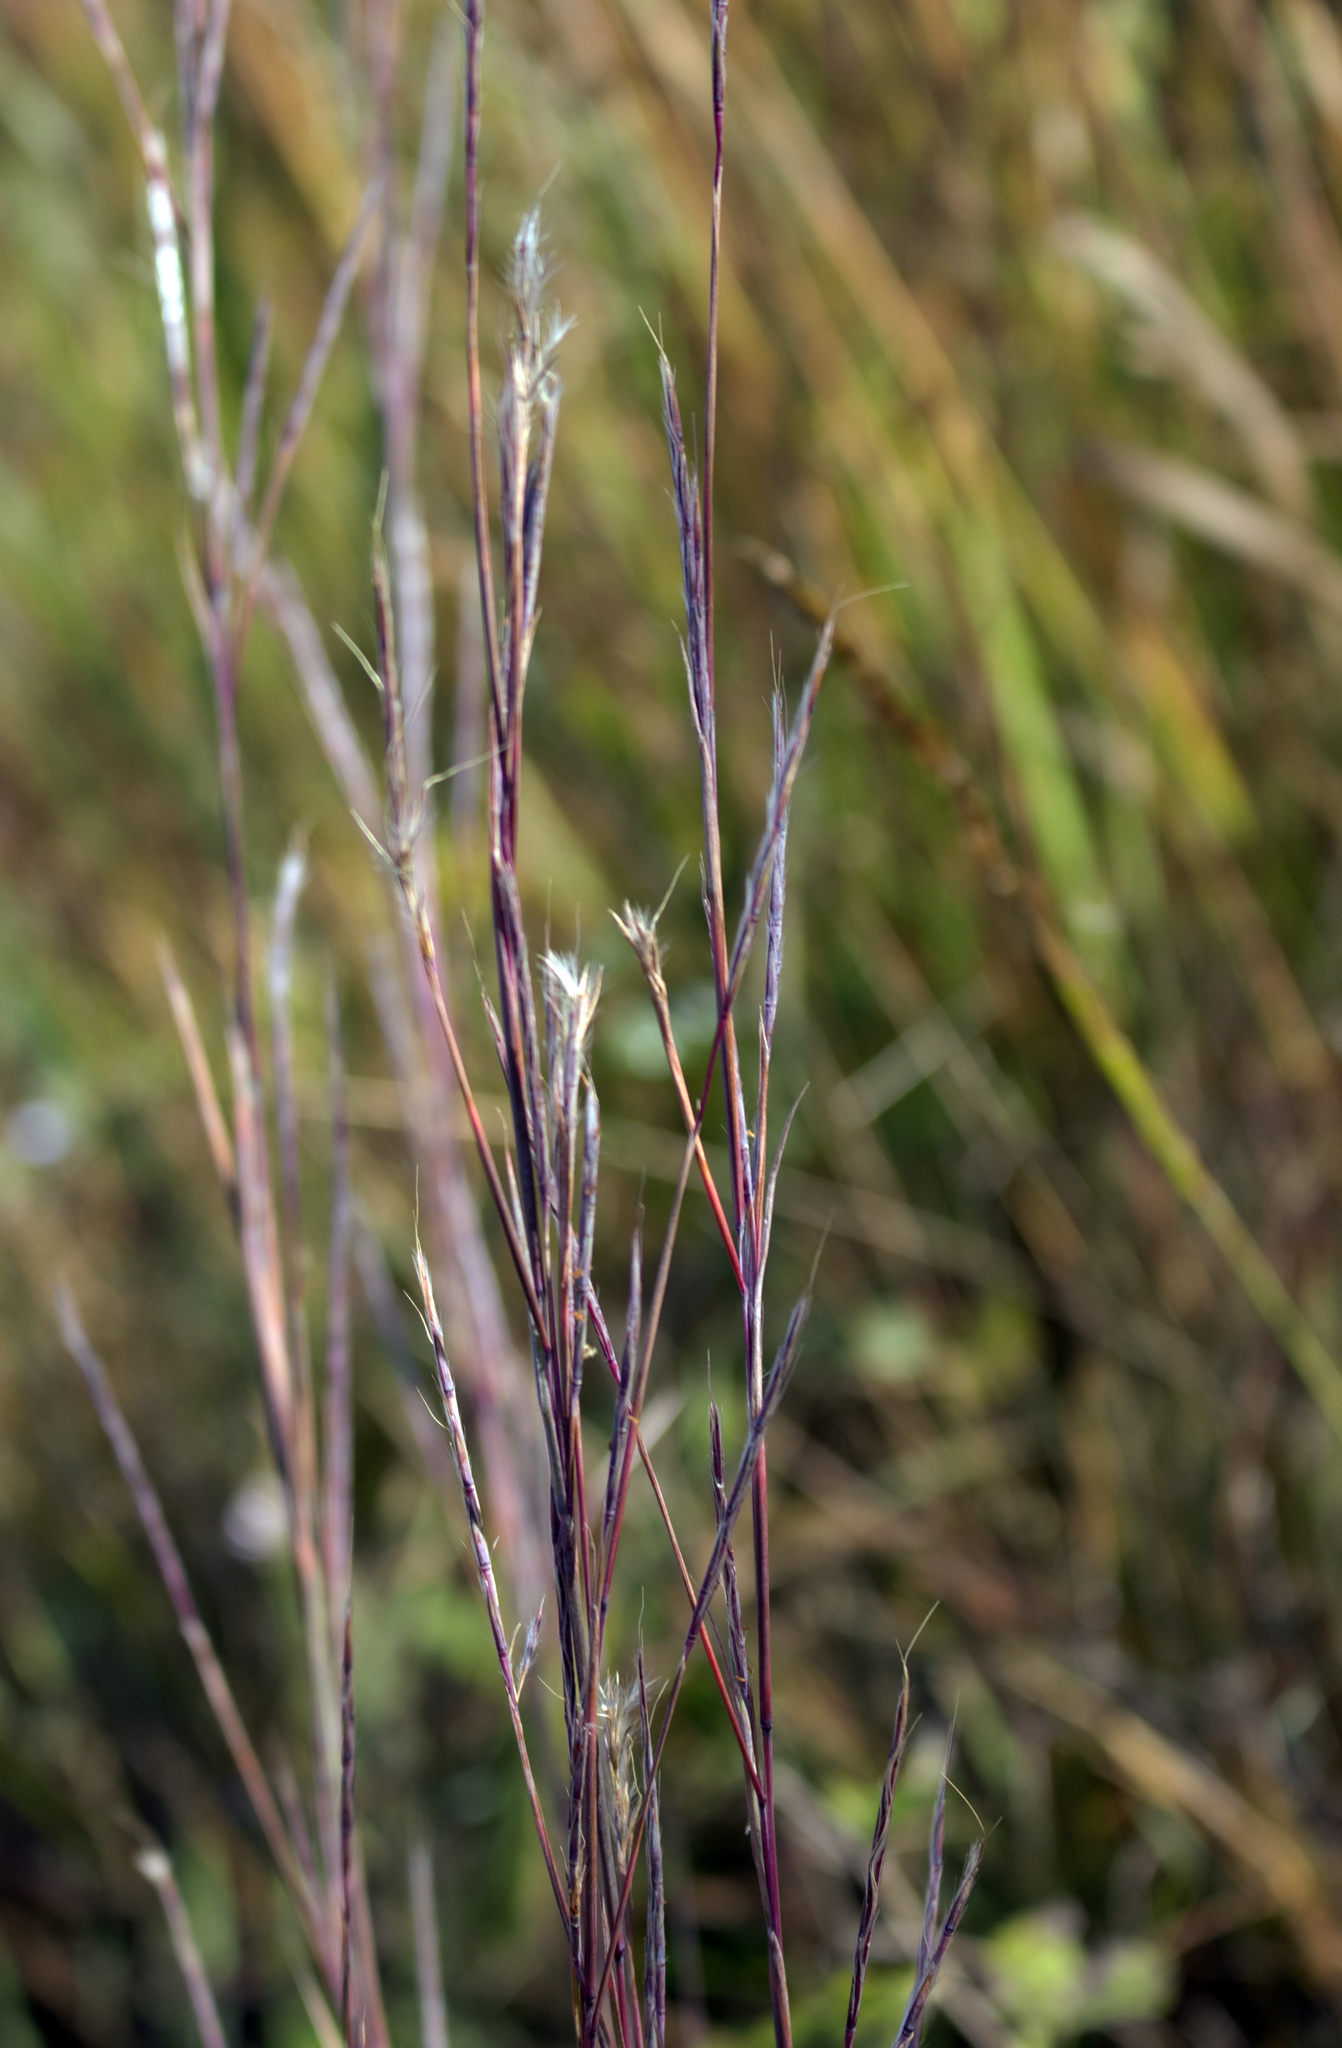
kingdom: Plantae
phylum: Tracheophyta
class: Liliopsida
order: Poales
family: Poaceae
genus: Schizachyrium
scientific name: Schizachyrium scoparium
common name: Little bluestem
